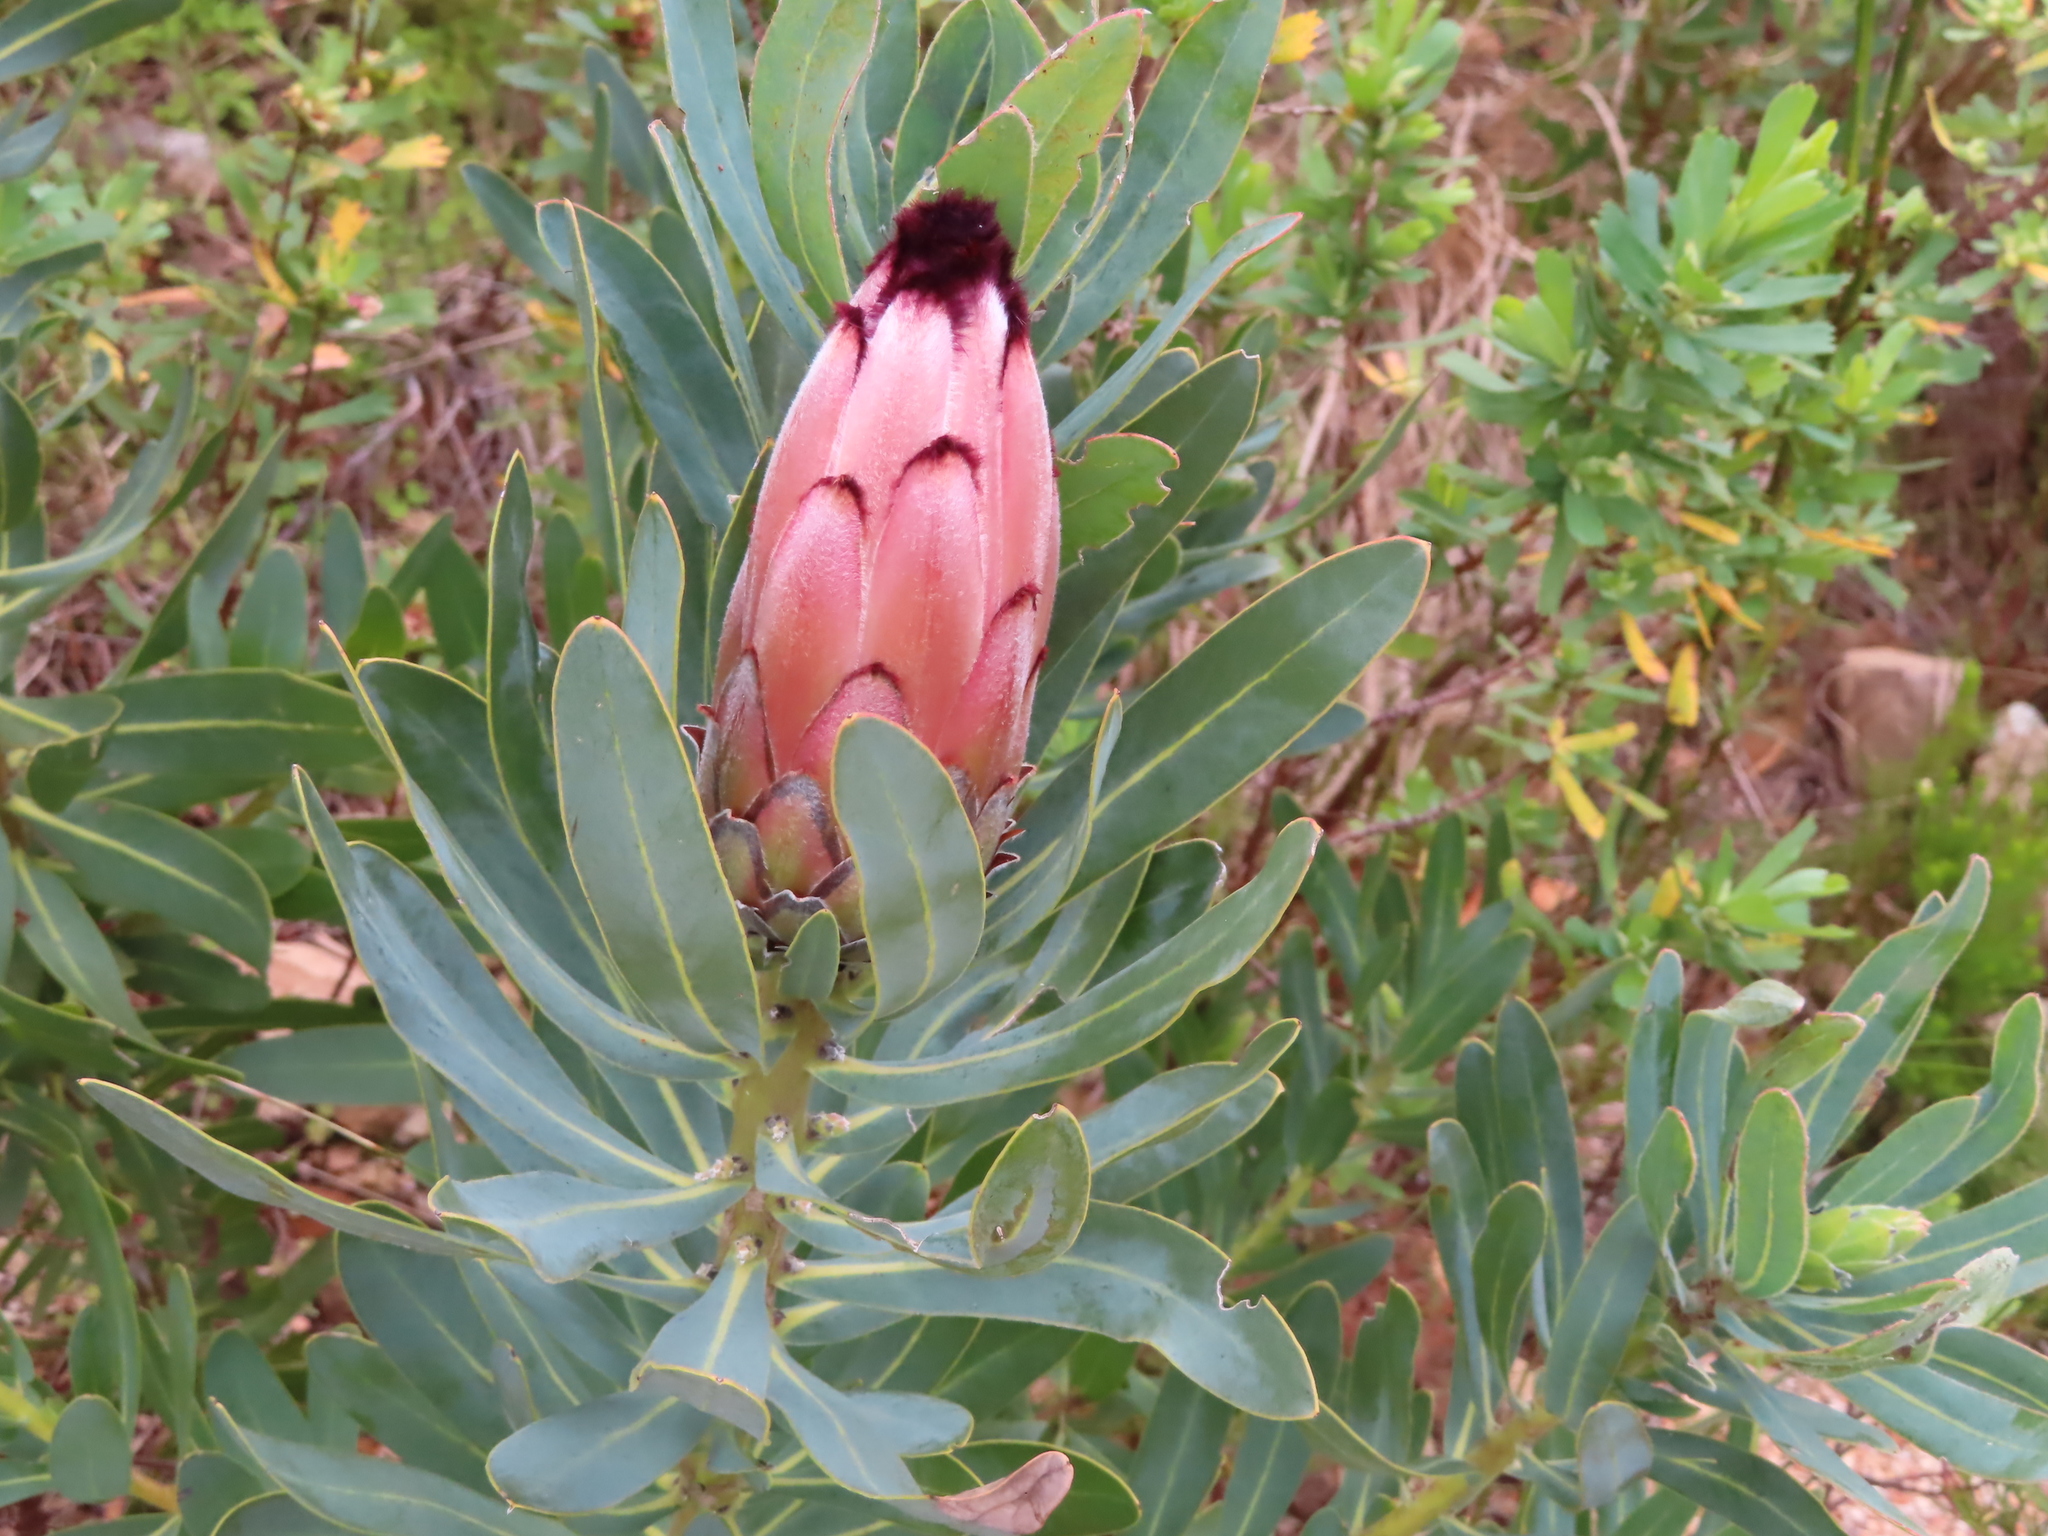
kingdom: Plantae
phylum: Tracheophyta
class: Magnoliopsida
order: Proteales
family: Proteaceae
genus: Protea
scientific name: Protea laurifolia
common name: Grey-leaf sugarbsh
